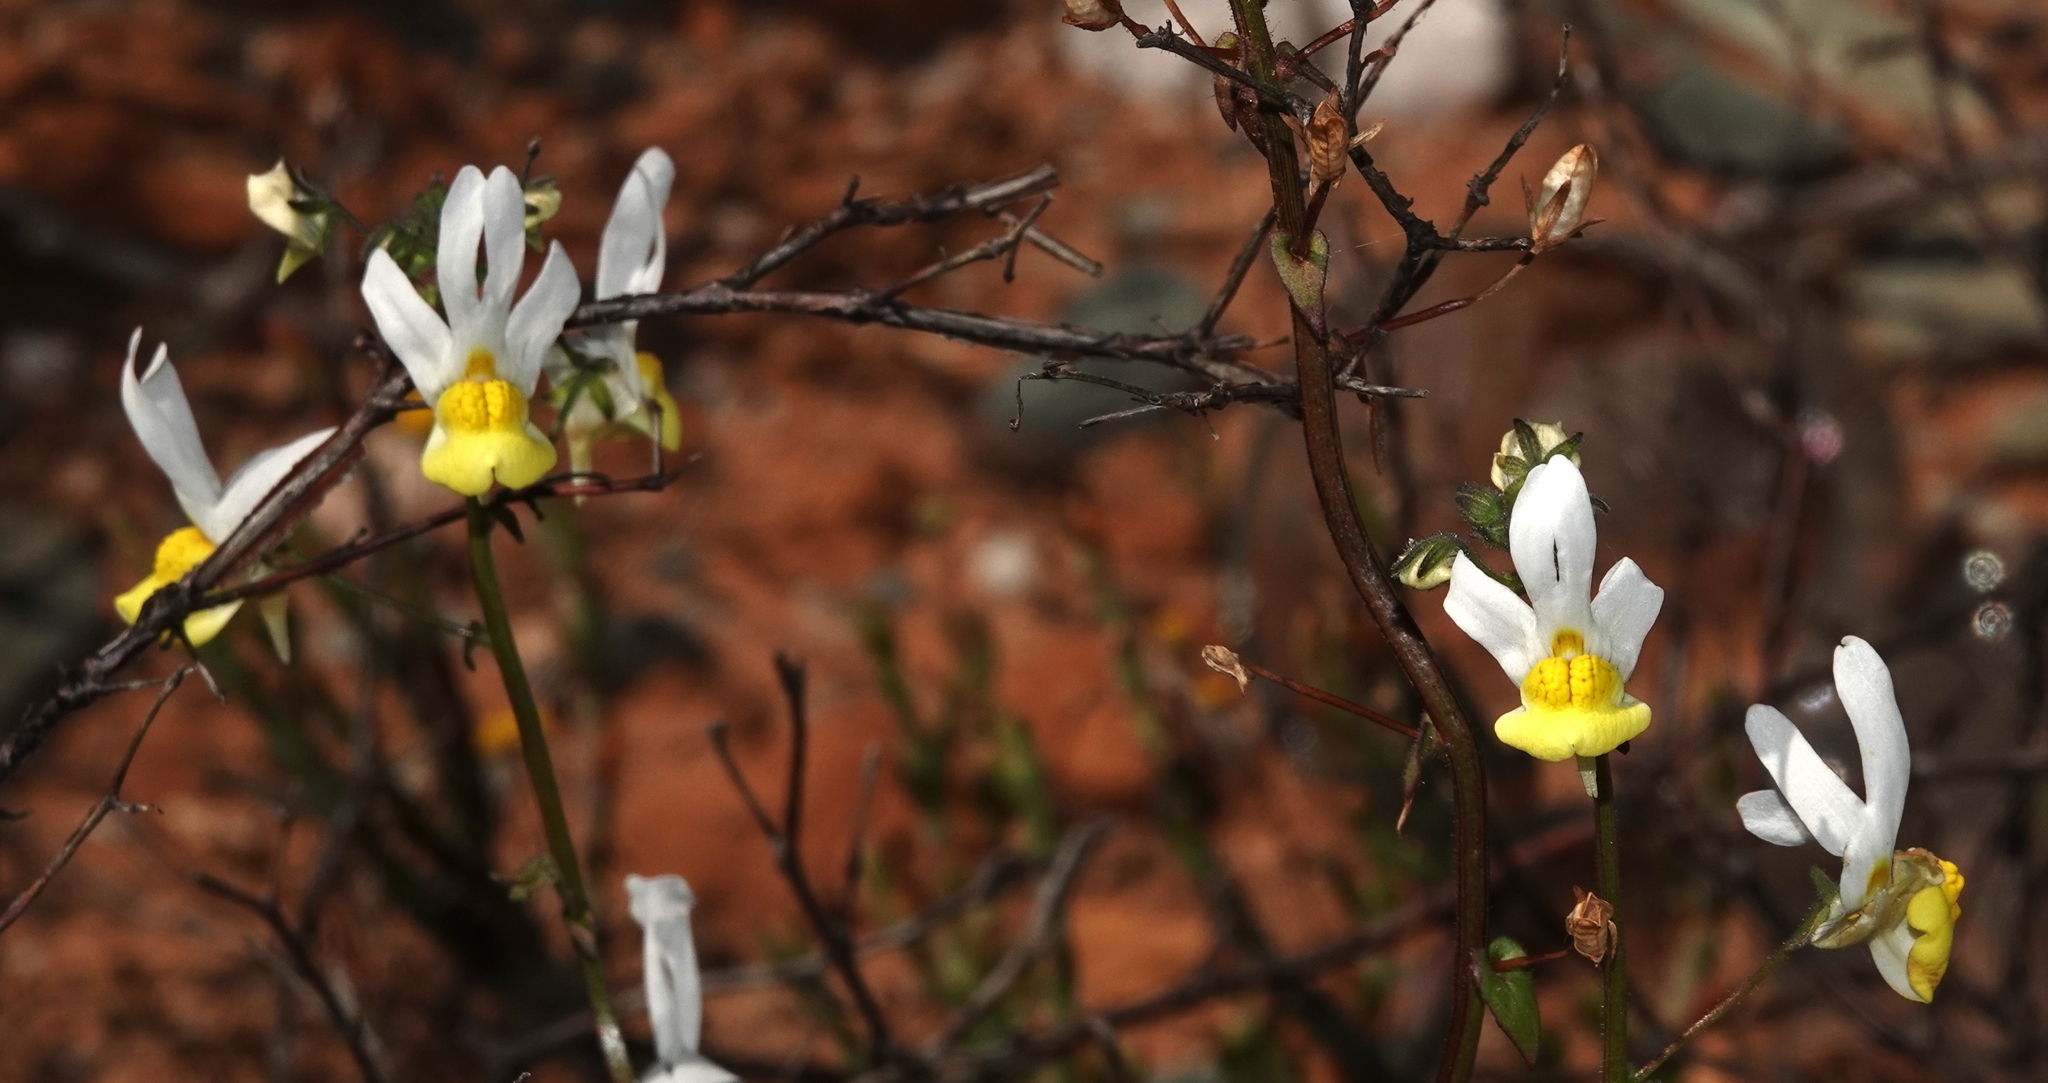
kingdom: Plantae
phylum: Tracheophyta
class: Magnoliopsida
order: Lamiales
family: Scrophulariaceae
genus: Nemesia
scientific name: Nemesia anisocarpa
